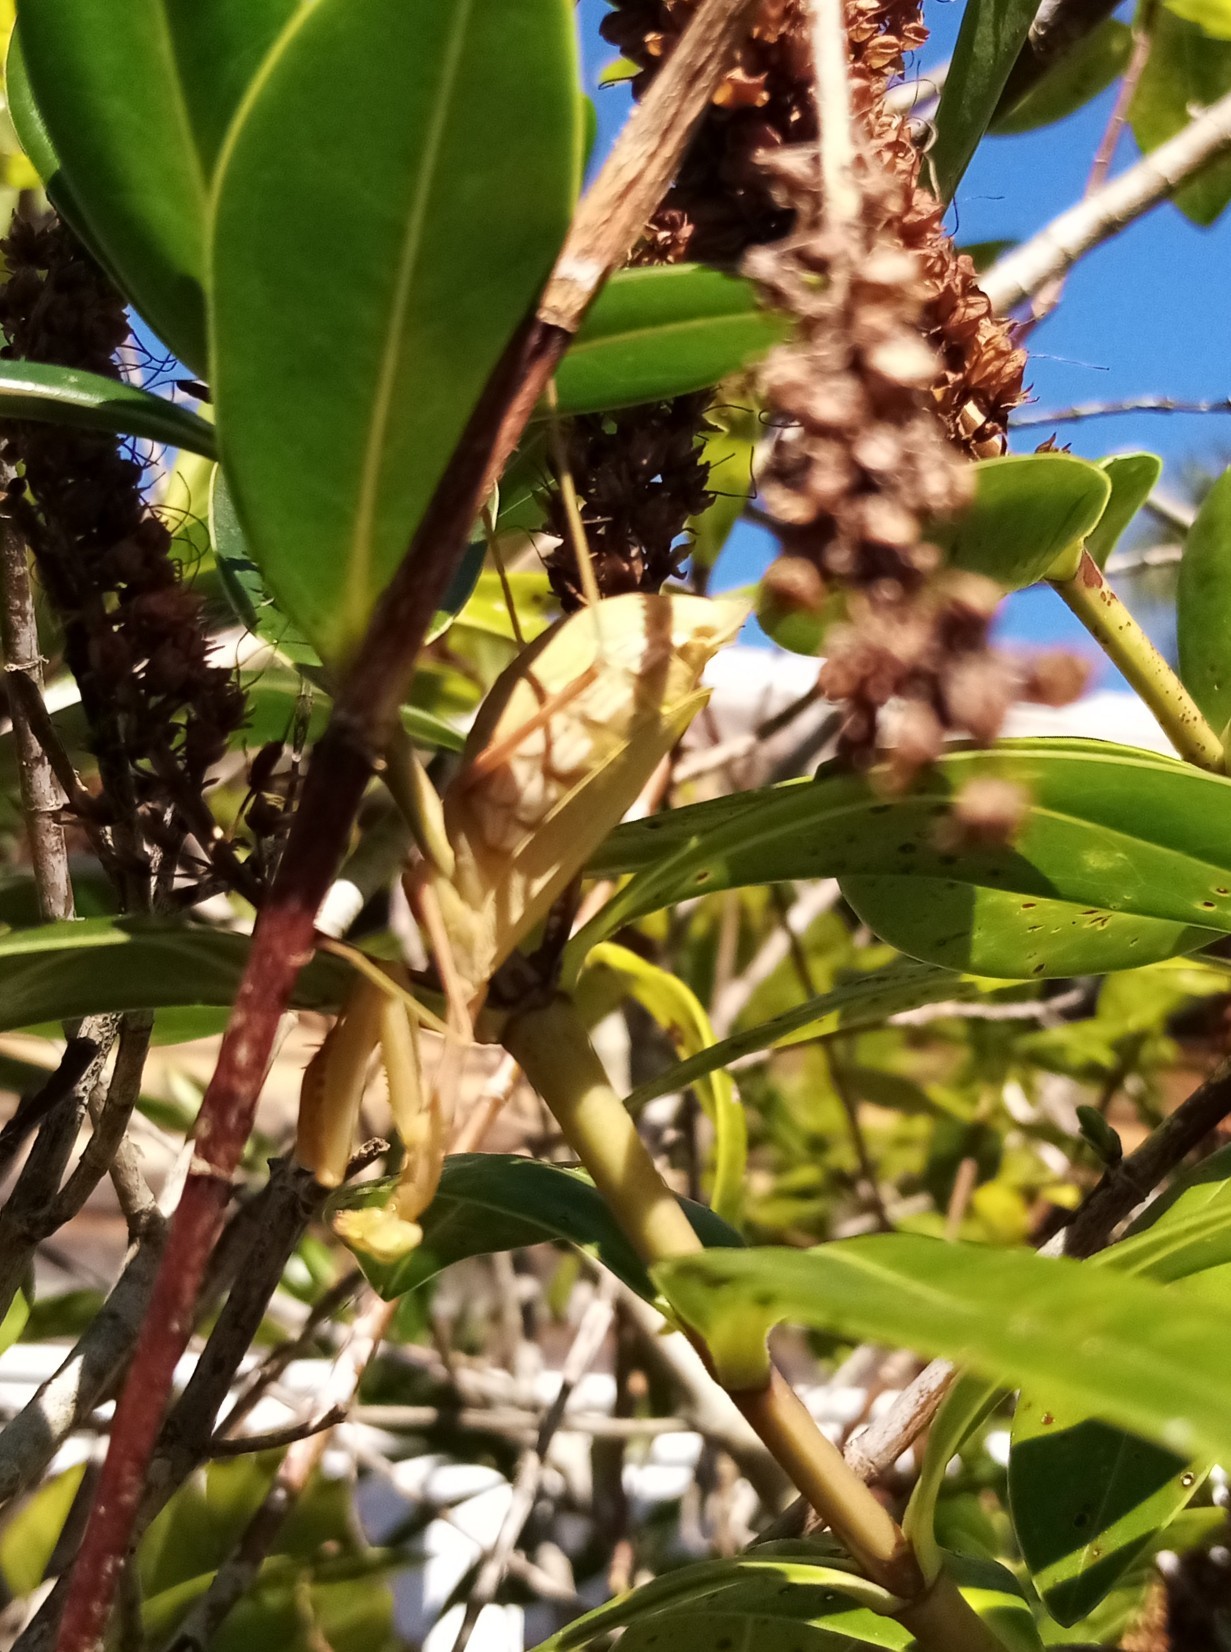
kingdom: Animalia
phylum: Arthropoda
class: Insecta
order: Mantodea
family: Miomantidae
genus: Miomantis
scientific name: Miomantis caffra
